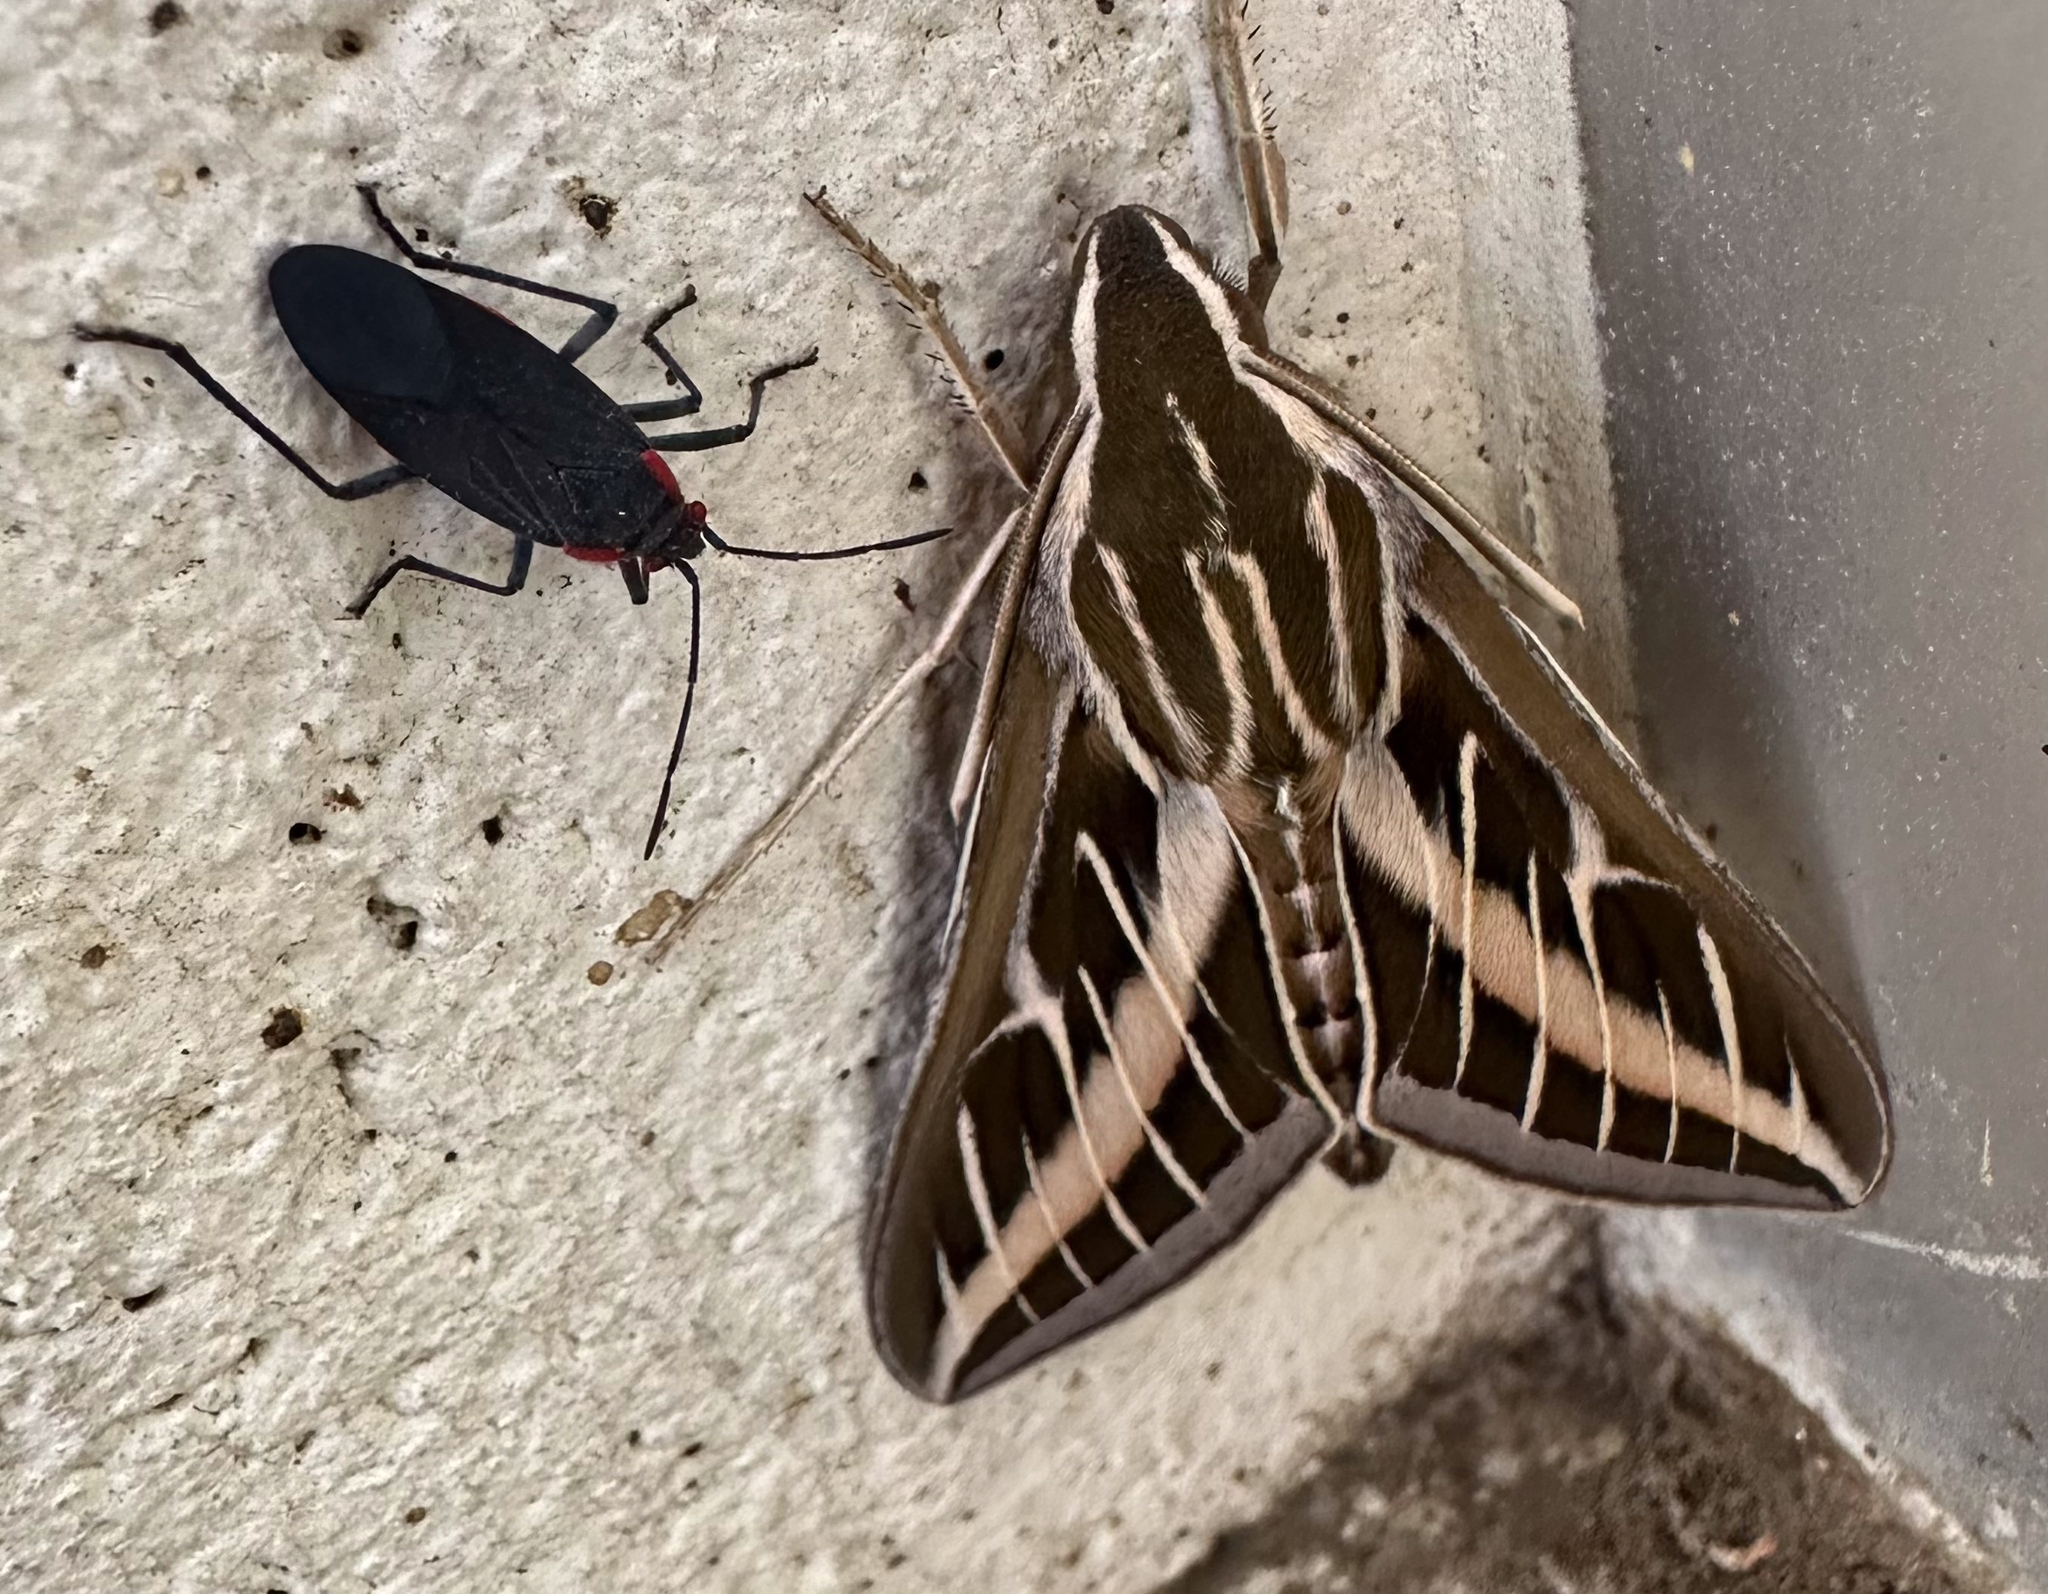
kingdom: Animalia
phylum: Arthropoda
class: Insecta
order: Hemiptera
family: Rhopalidae
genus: Jadera
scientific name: Jadera haematoloma
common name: Red-shouldered bug
